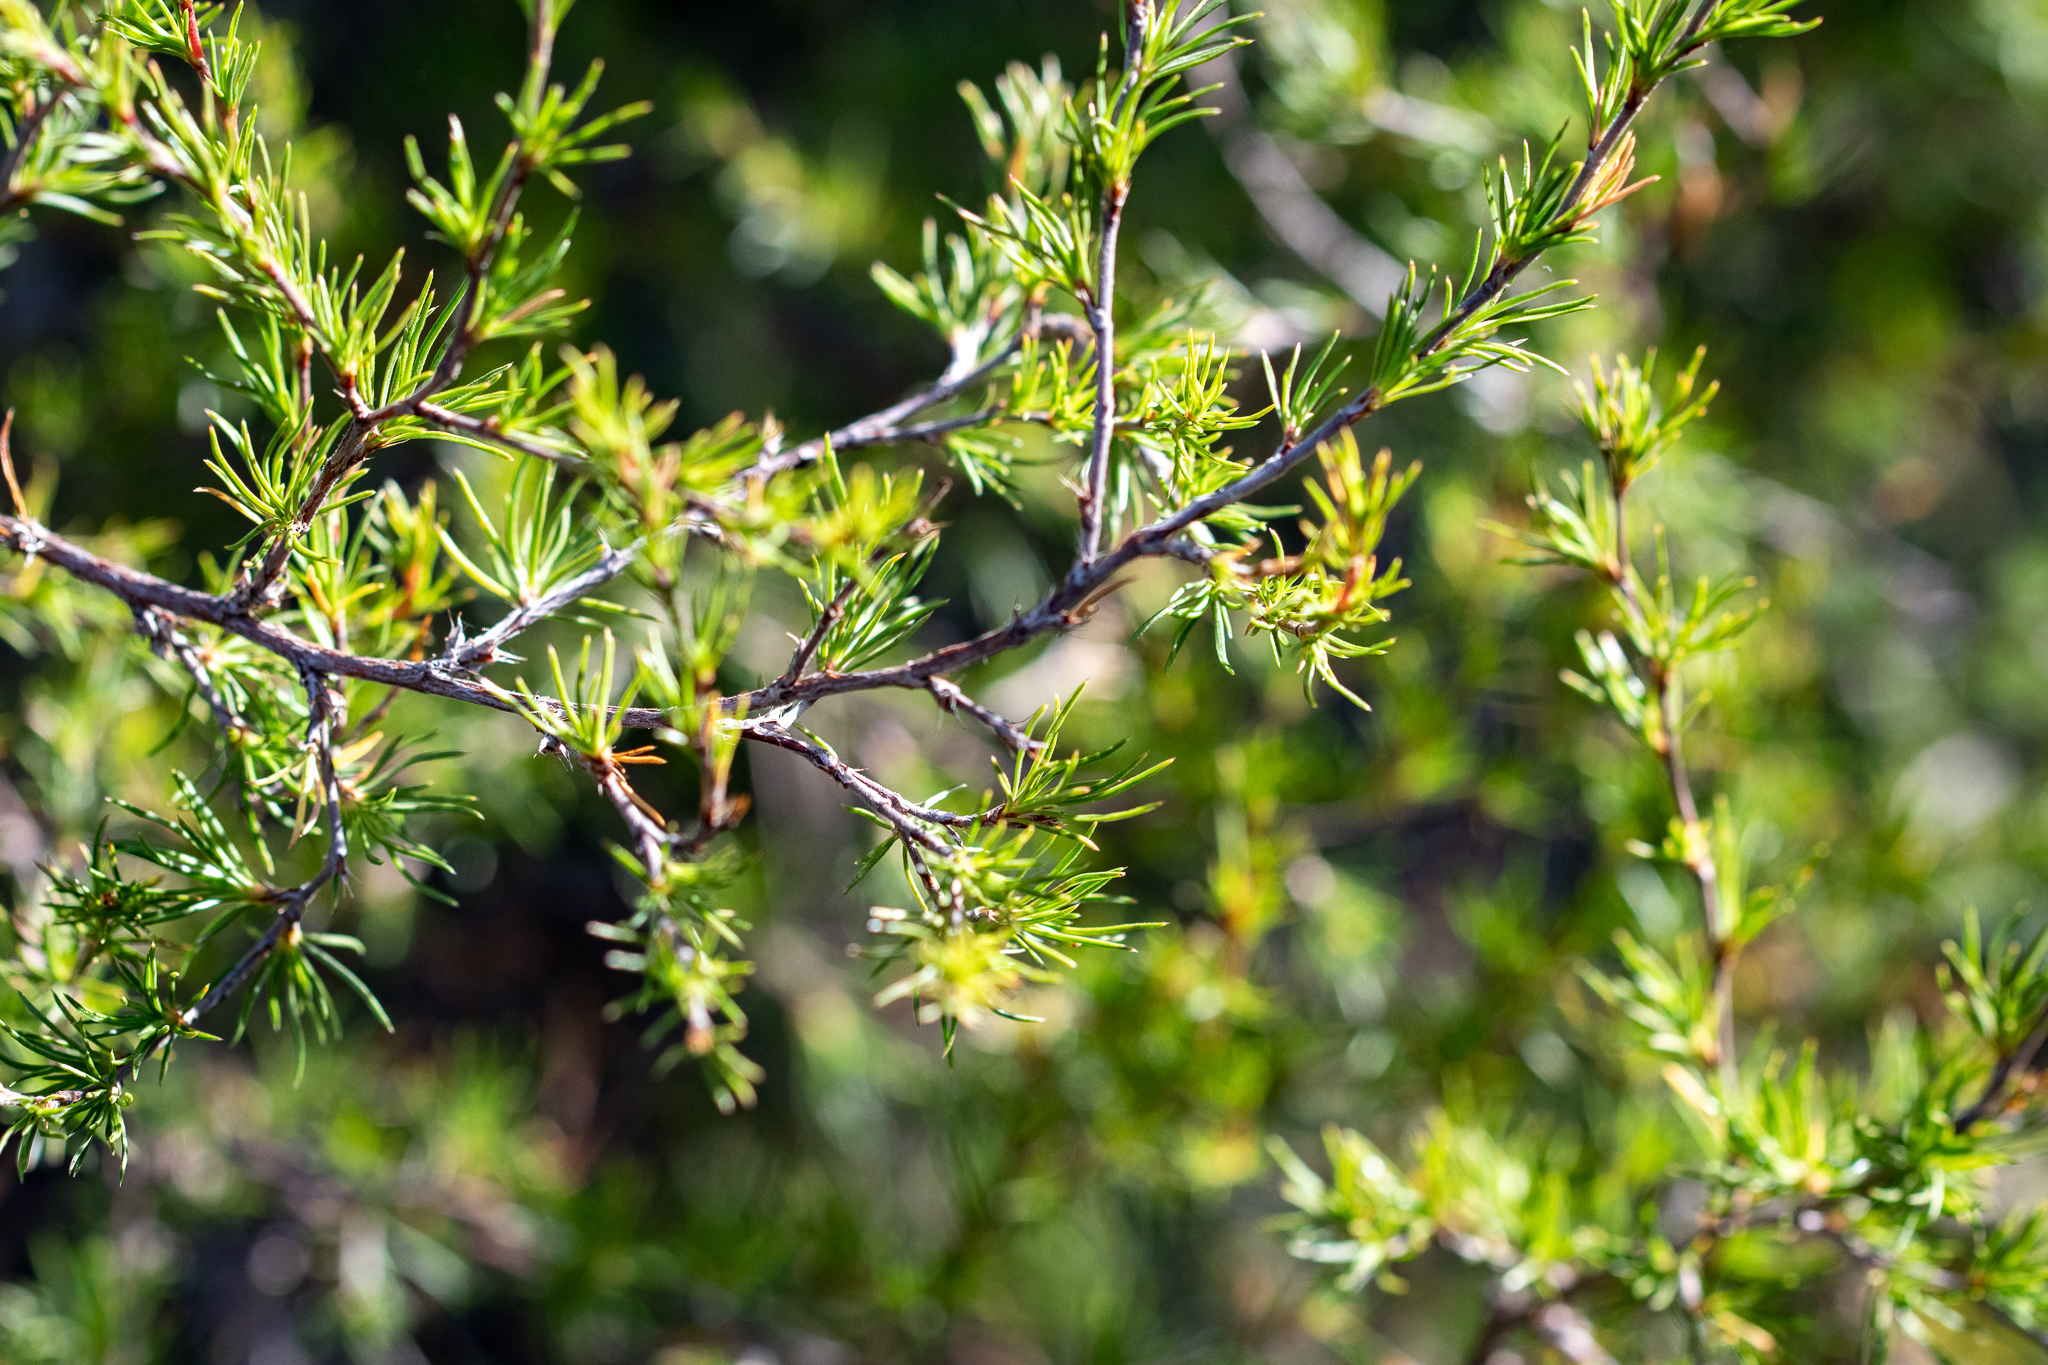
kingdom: Plantae
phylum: Tracheophyta
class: Magnoliopsida
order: Rosales
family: Rosaceae
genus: Cliffortia
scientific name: Cliffortia atrata
